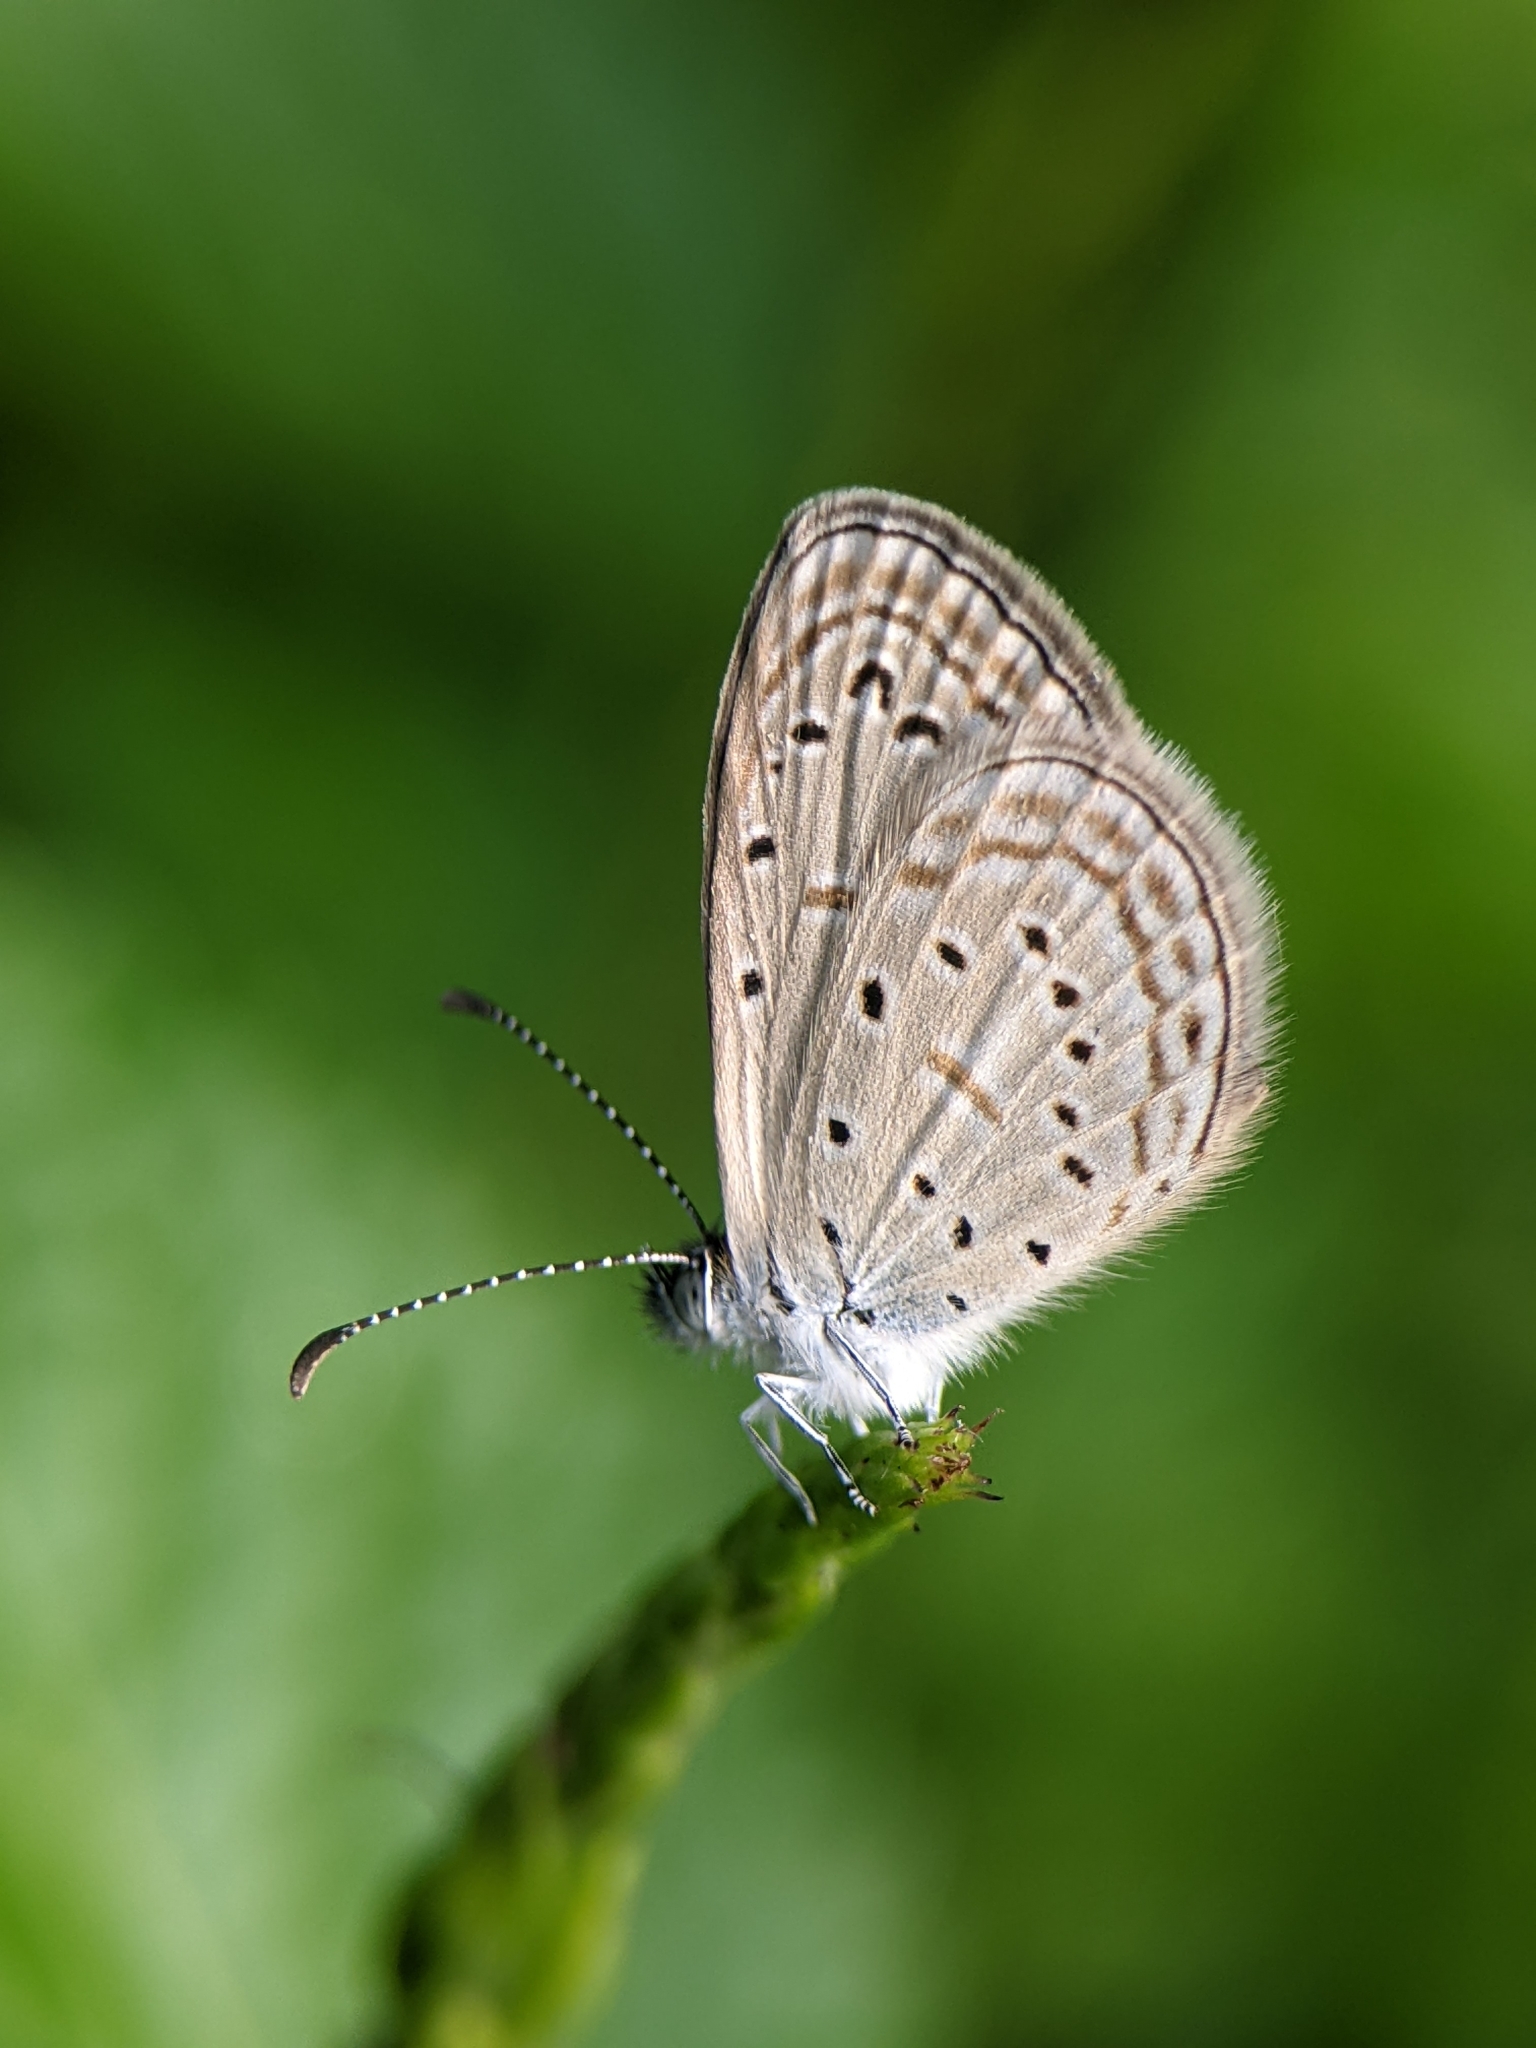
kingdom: Animalia
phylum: Arthropoda
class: Insecta
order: Lepidoptera
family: Lycaenidae
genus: Zizula
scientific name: Zizula hylax
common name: Gaika blue
